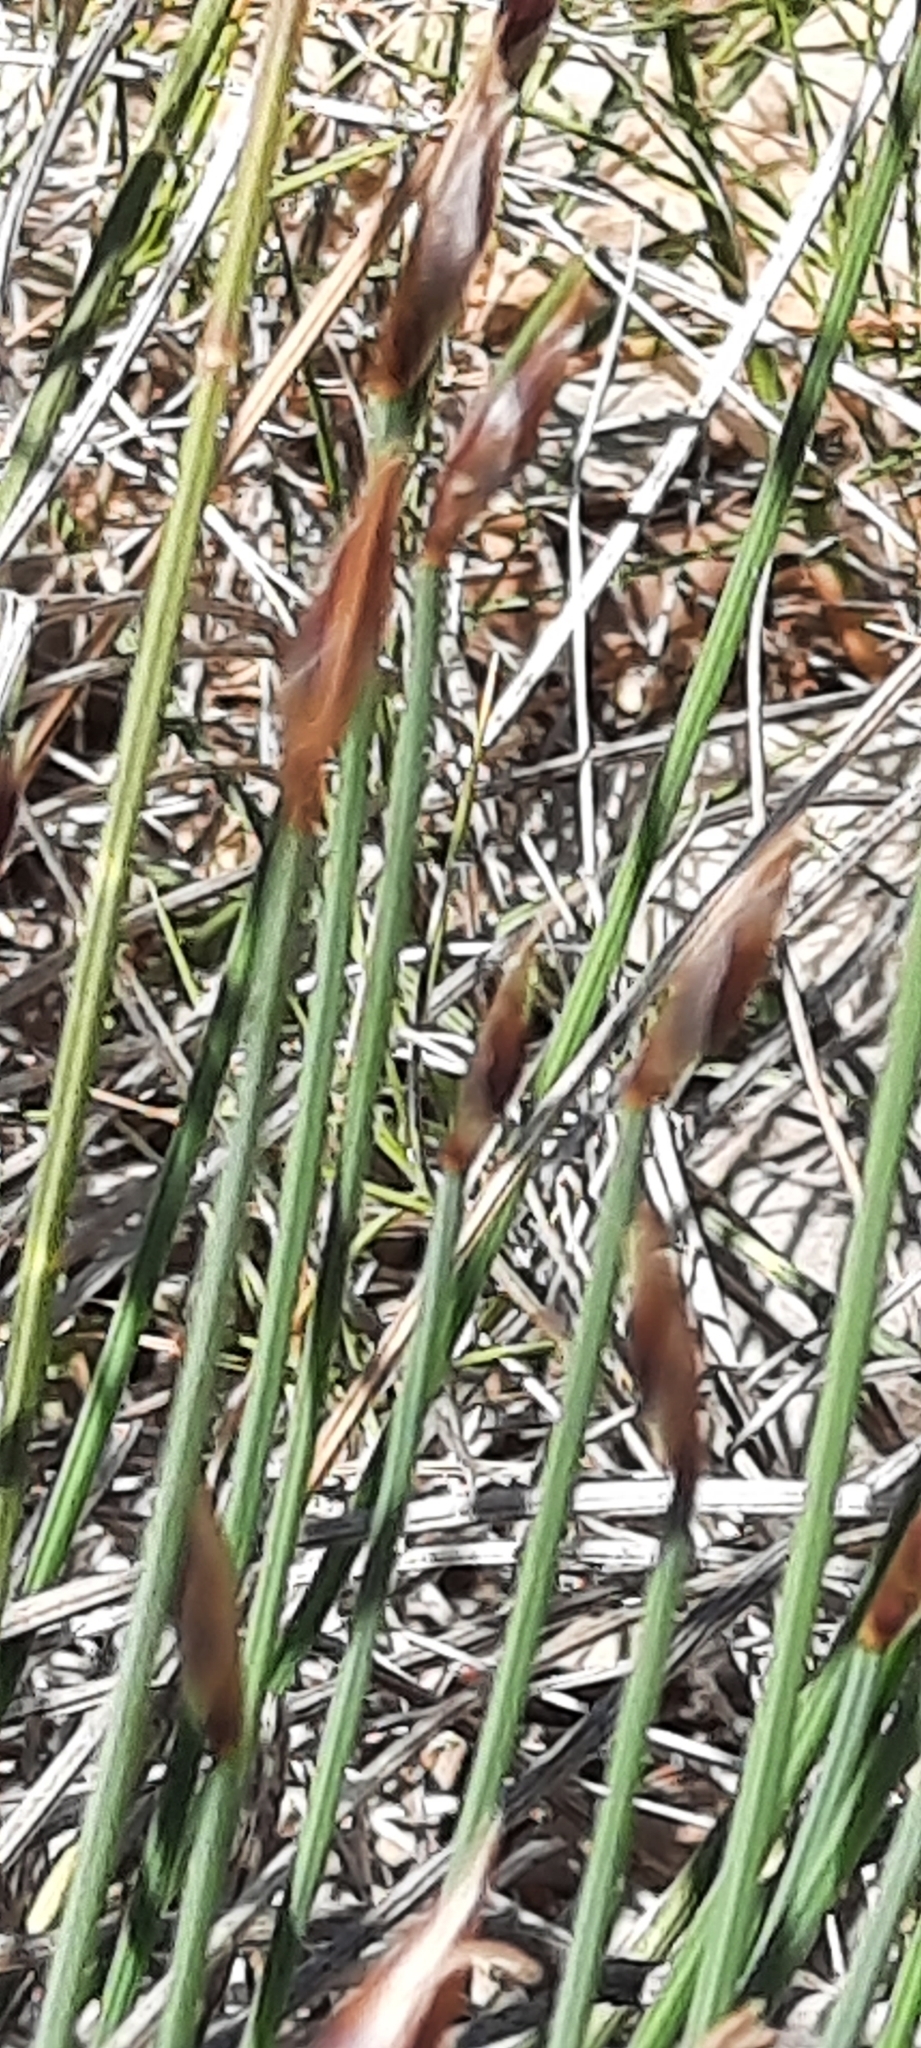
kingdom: Plantae
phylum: Tracheophyta
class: Liliopsida
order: Asparagales
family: Asparagaceae
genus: Aphyllanthes
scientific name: Aphyllanthes monspeliensis
